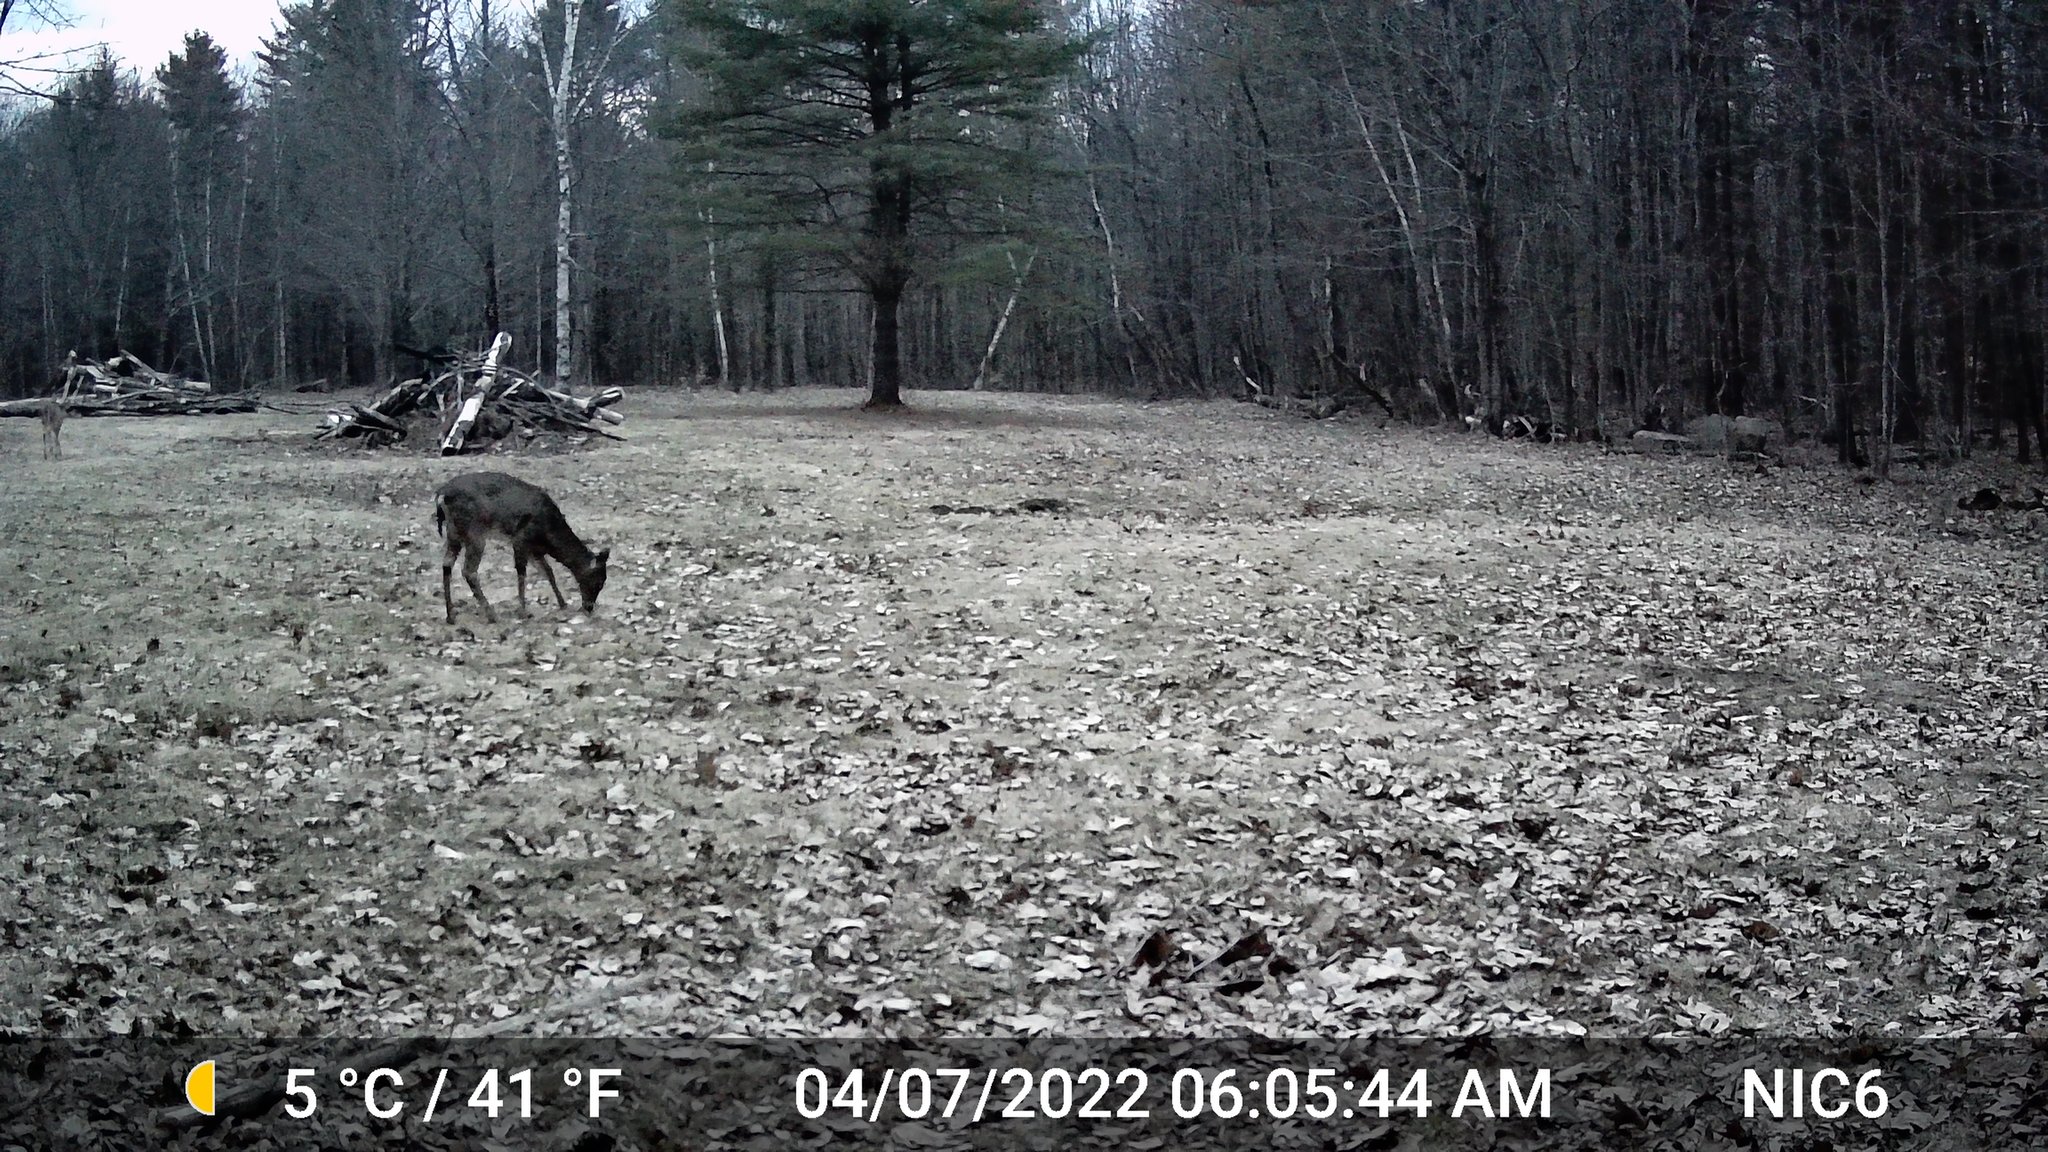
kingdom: Animalia
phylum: Chordata
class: Mammalia
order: Artiodactyla
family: Cervidae
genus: Odocoileus
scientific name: Odocoileus virginianus
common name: White-tailed deer
